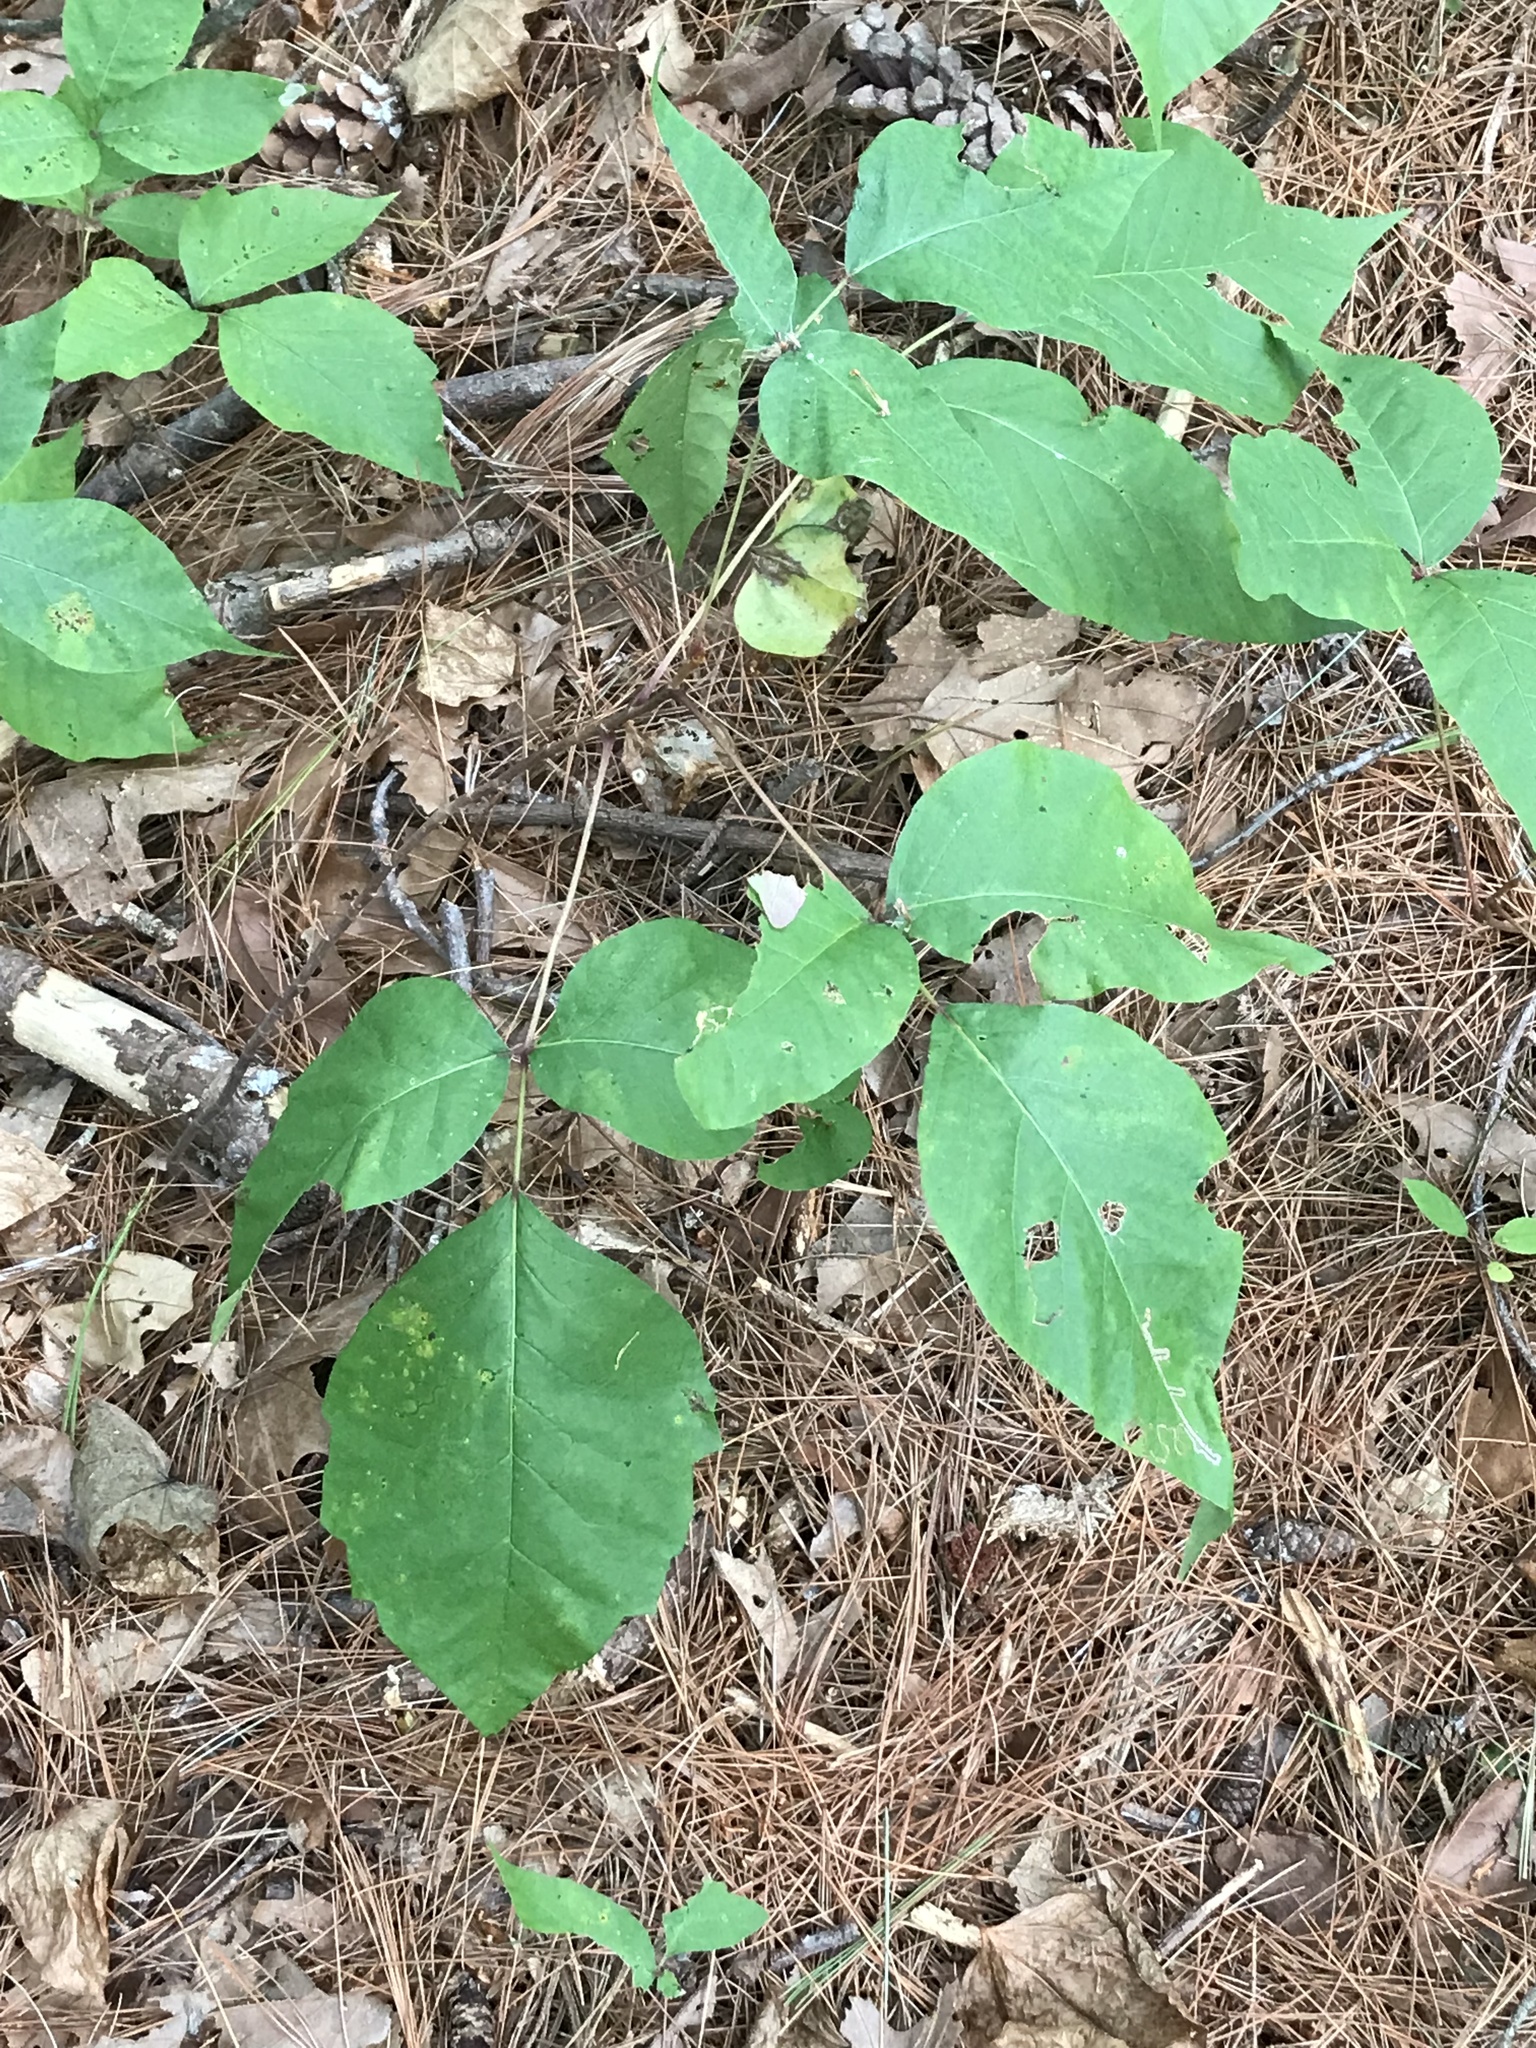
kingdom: Plantae
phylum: Tracheophyta
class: Magnoliopsida
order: Sapindales
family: Anacardiaceae
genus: Toxicodendron
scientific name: Toxicodendron radicans
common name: Poison ivy
